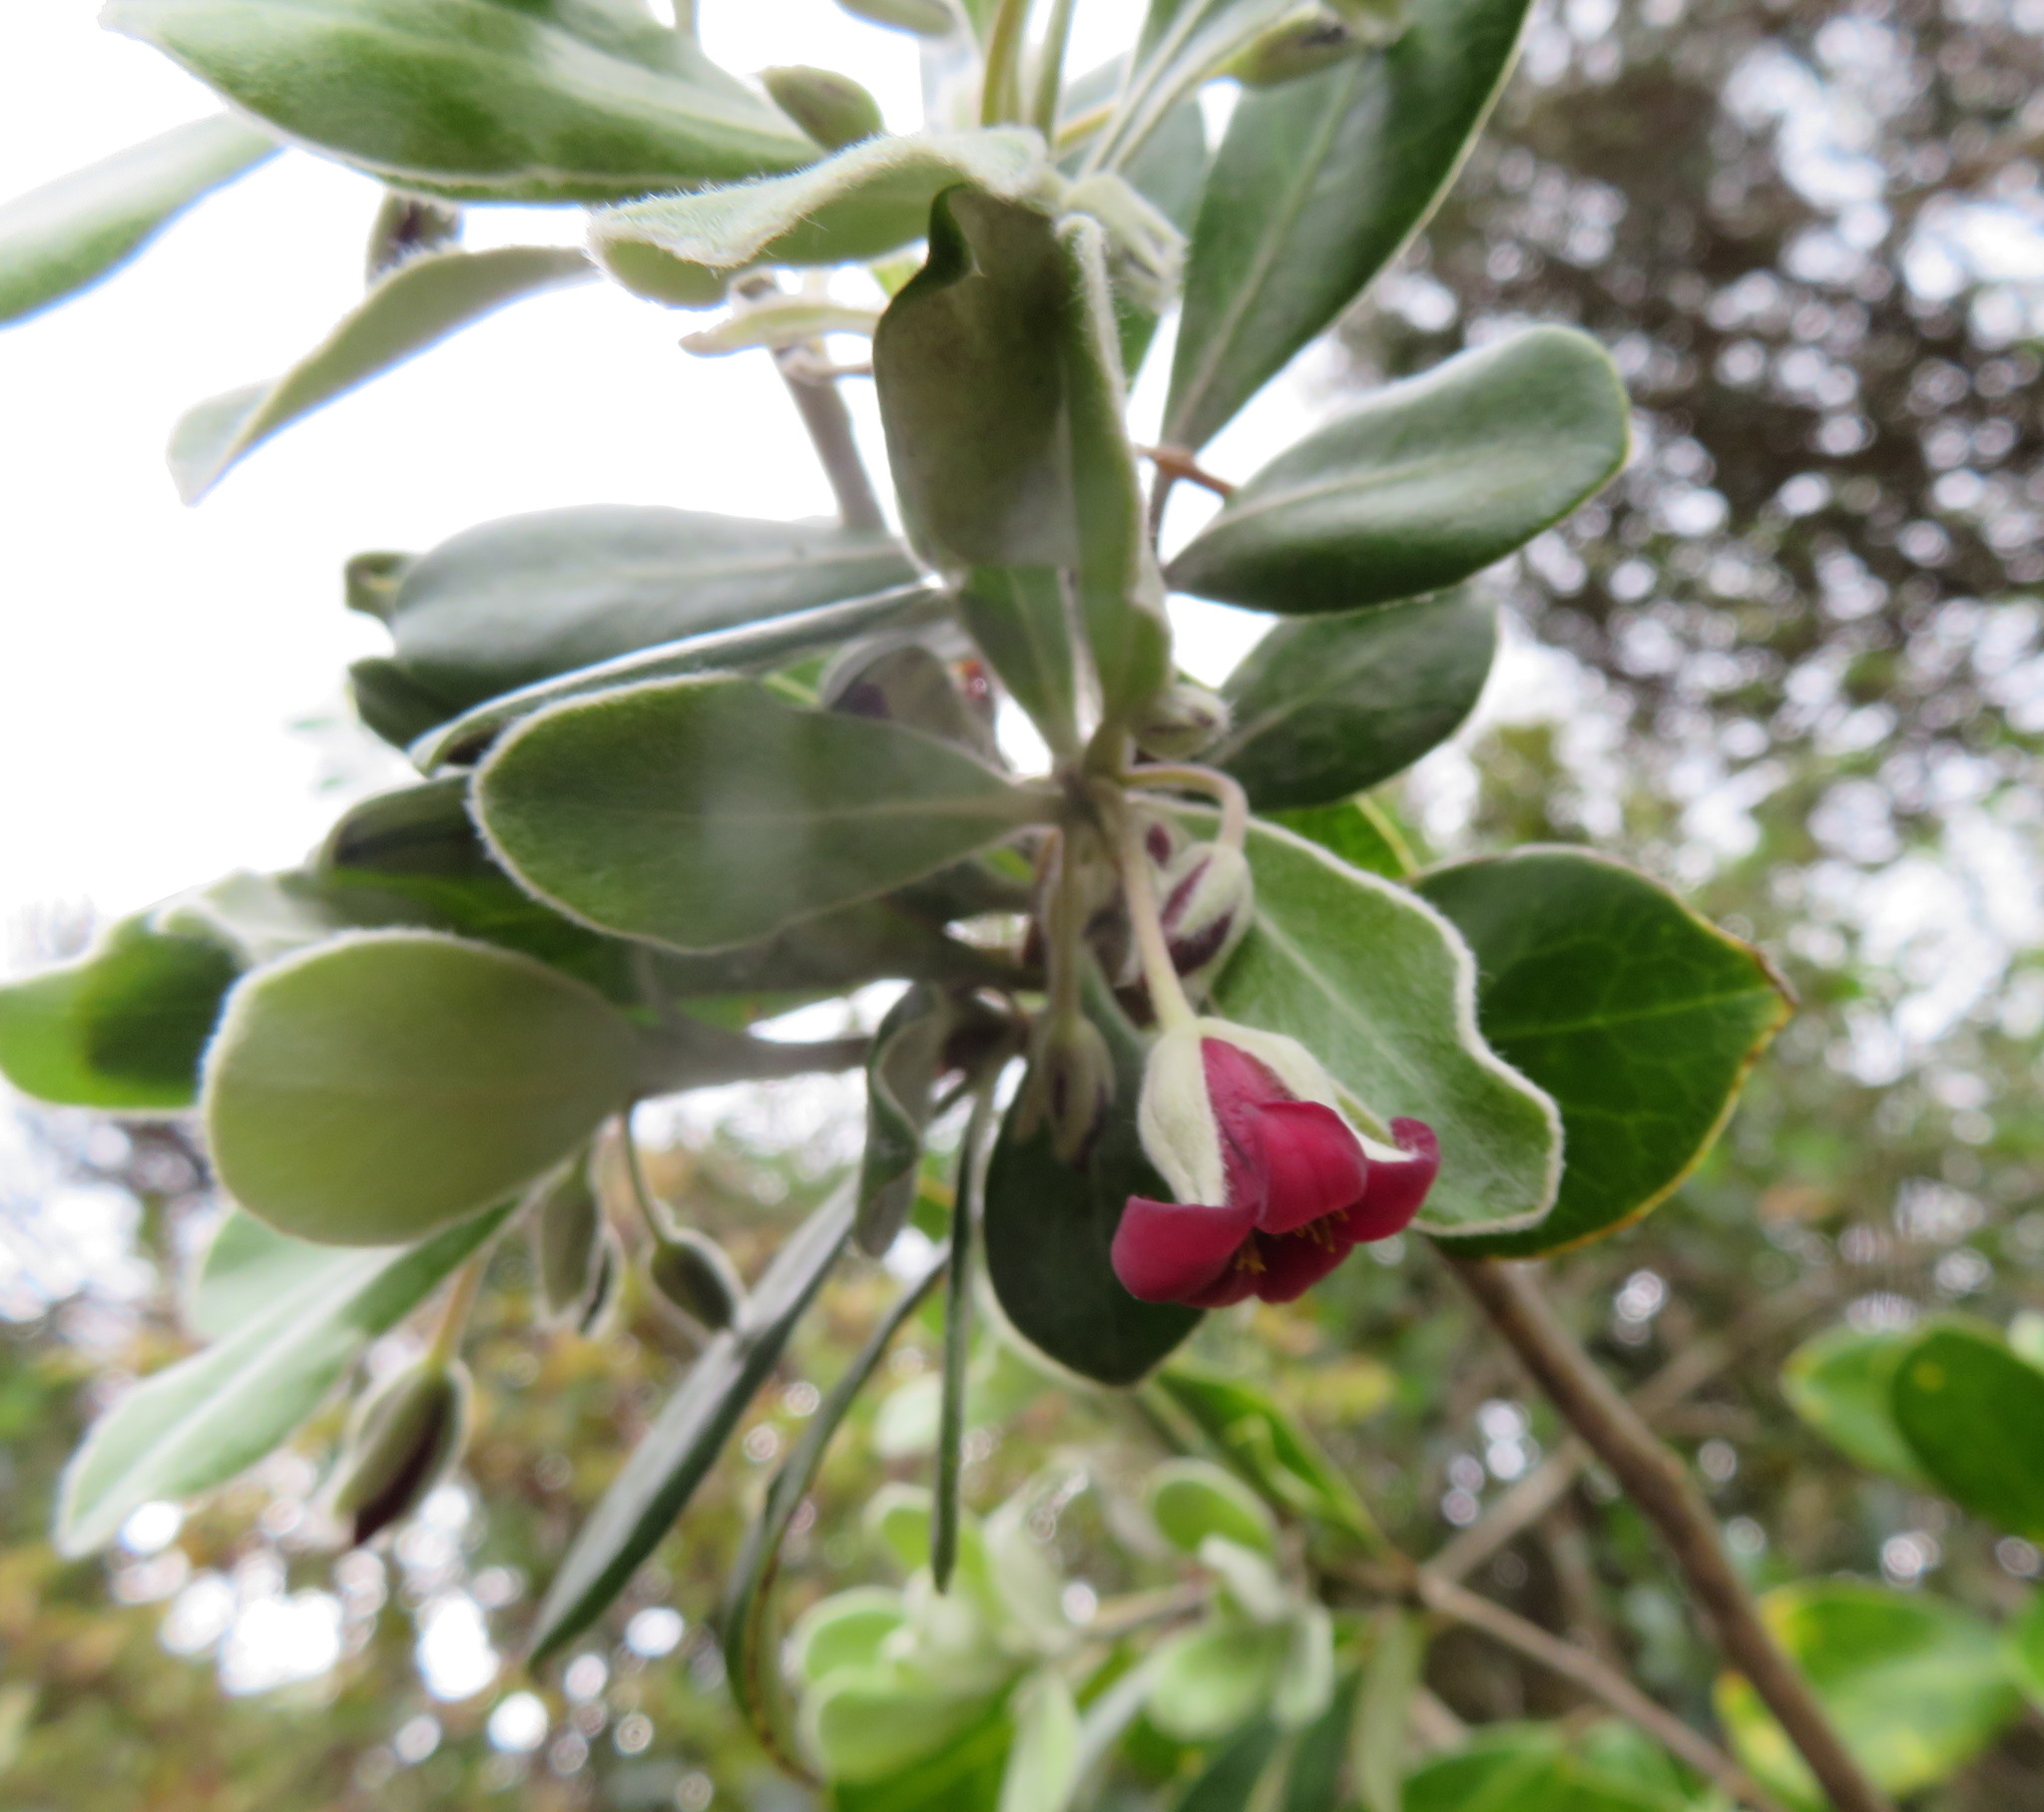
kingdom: Plantae
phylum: Tracheophyta
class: Magnoliopsida
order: Apiales
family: Pittosporaceae
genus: Pittosporum
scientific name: Pittosporum crassifolium
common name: Karo
